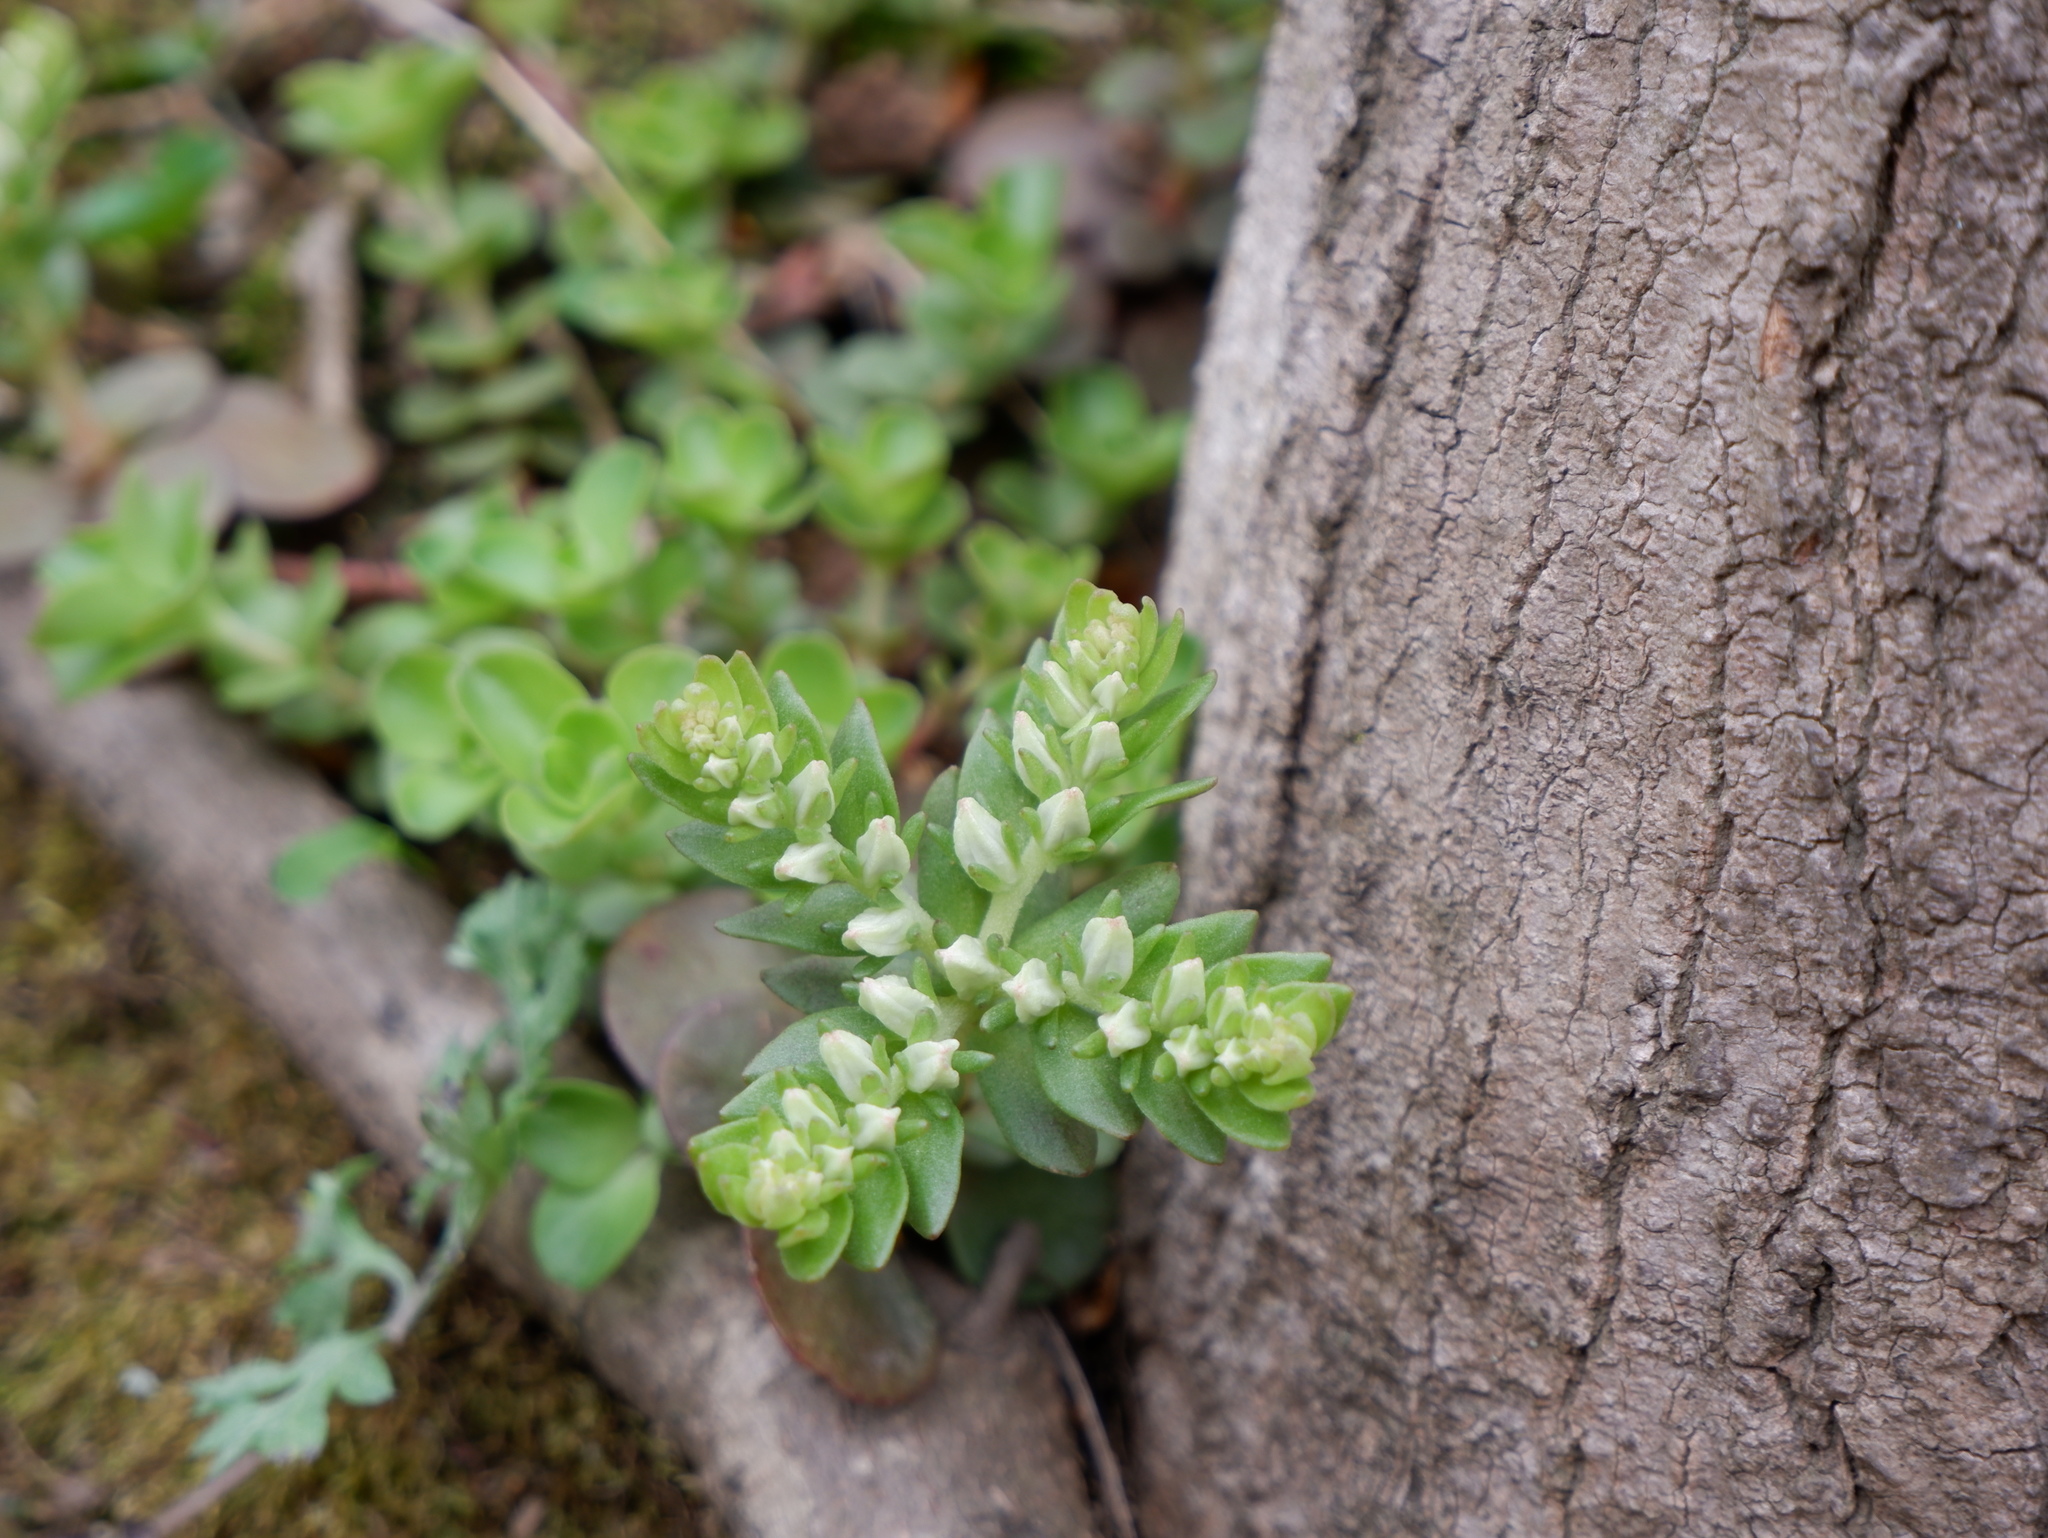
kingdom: Plantae
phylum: Tracheophyta
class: Magnoliopsida
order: Saxifragales
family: Crassulaceae
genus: Sedum
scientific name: Sedum ternatum
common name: Wild stonecrop
